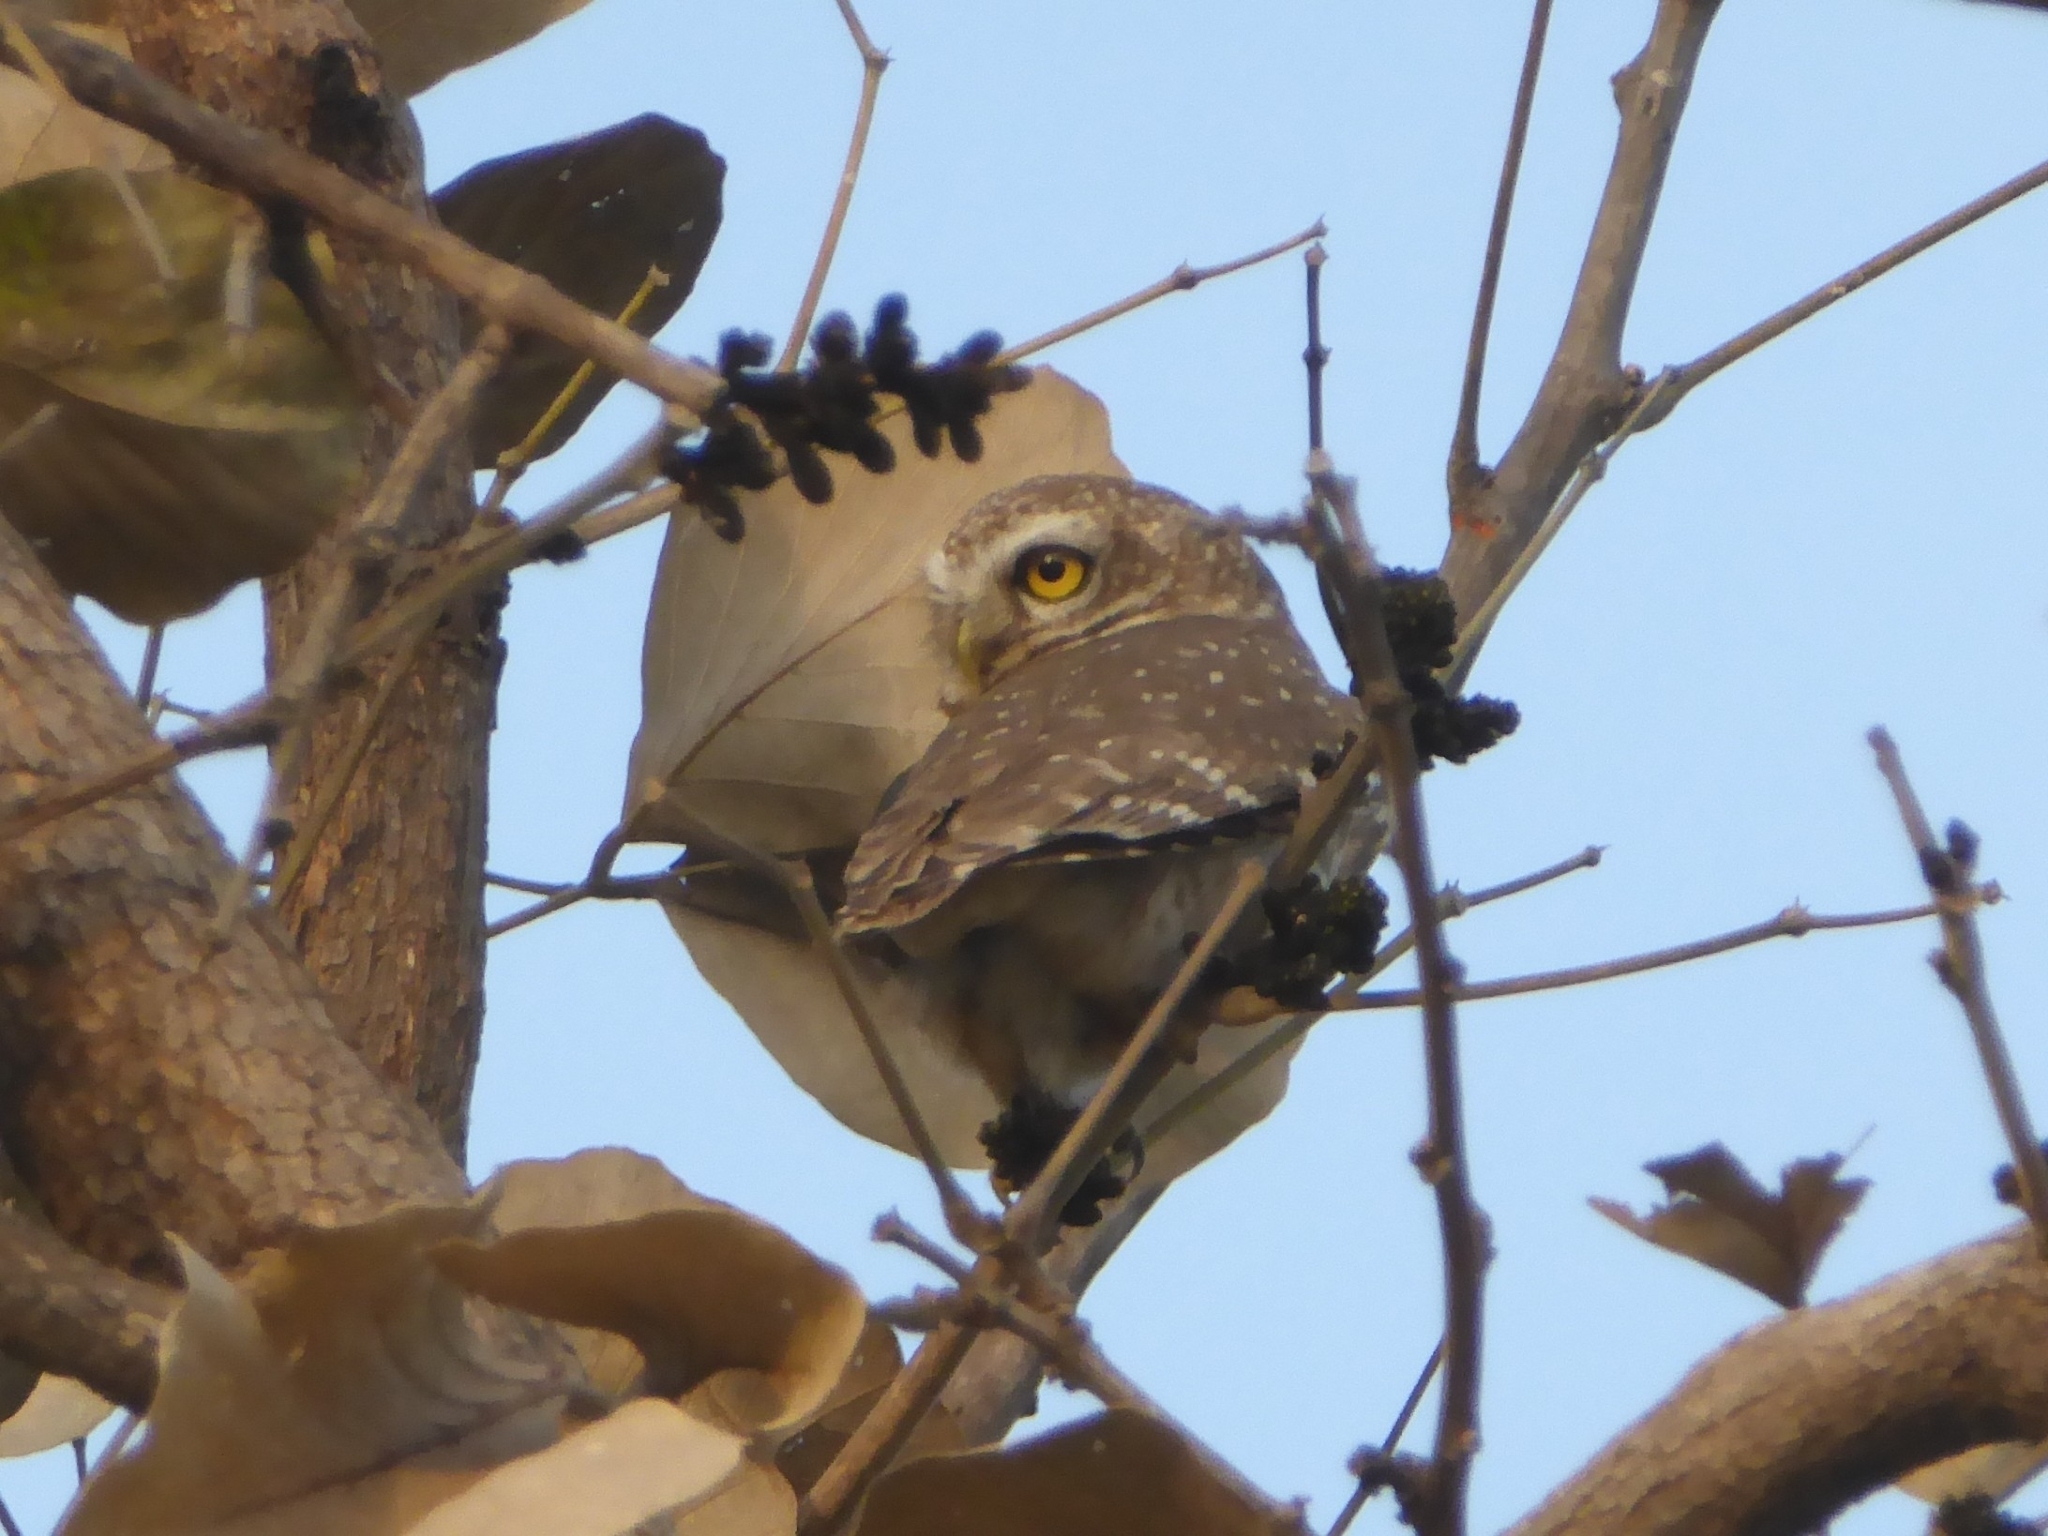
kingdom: Animalia
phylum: Chordata
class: Aves
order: Strigiformes
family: Strigidae
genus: Athene
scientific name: Athene brama
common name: Spotted owlet
